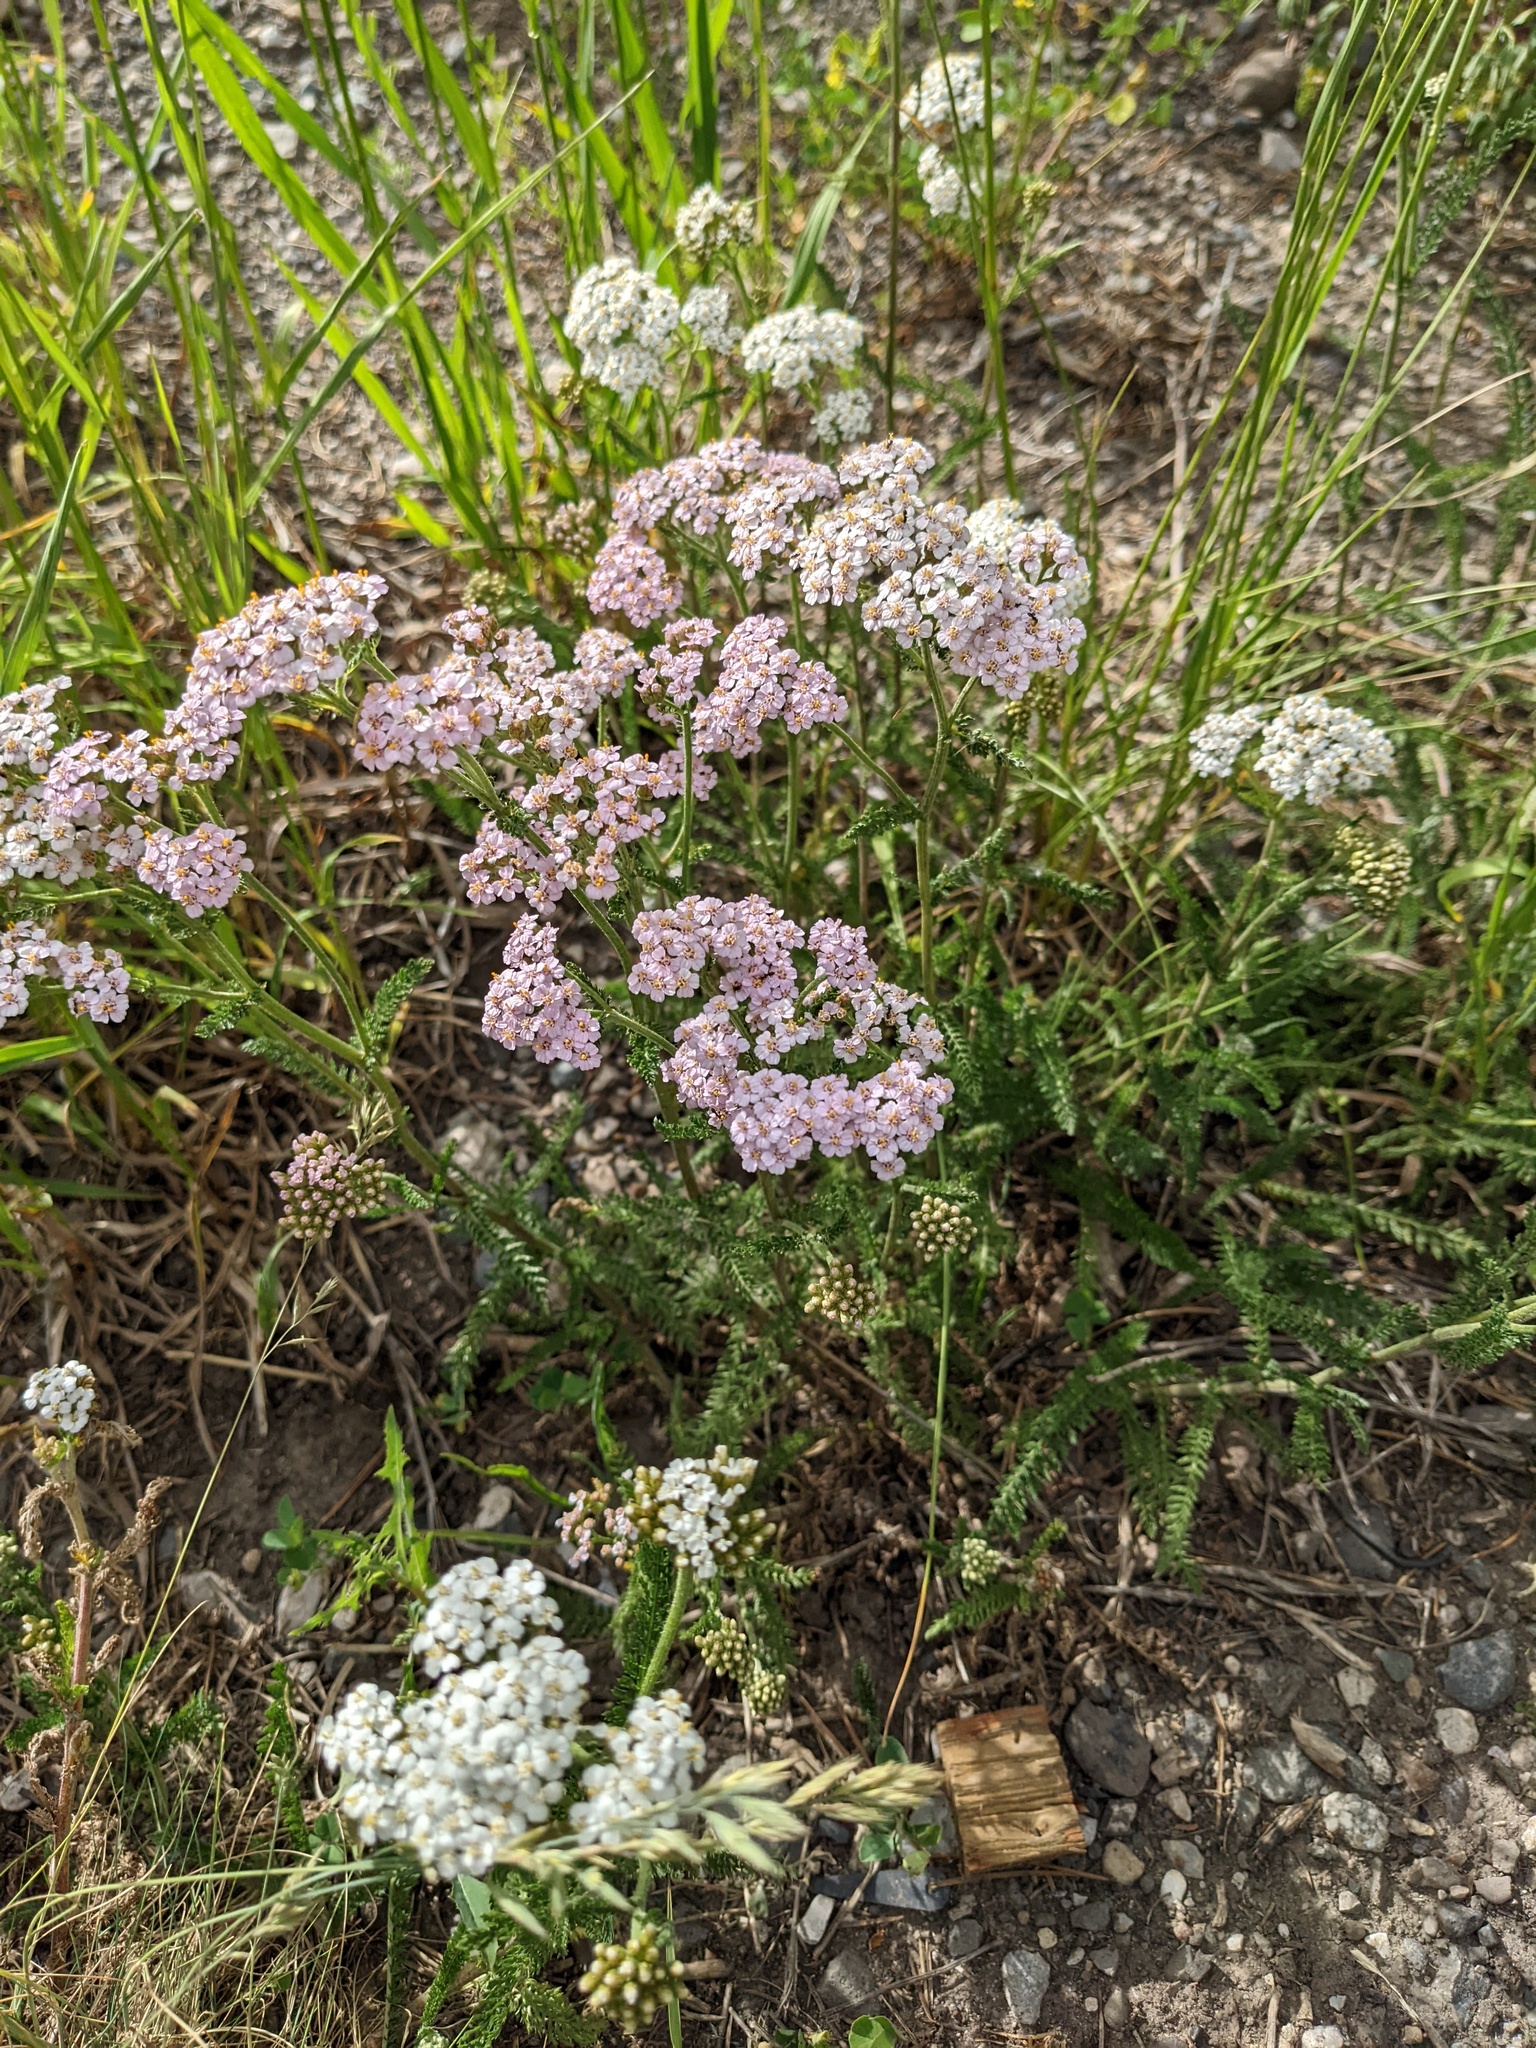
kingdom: Plantae
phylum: Tracheophyta
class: Magnoliopsida
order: Asterales
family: Asteraceae
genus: Achillea
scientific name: Achillea millefolium
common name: Yarrow
